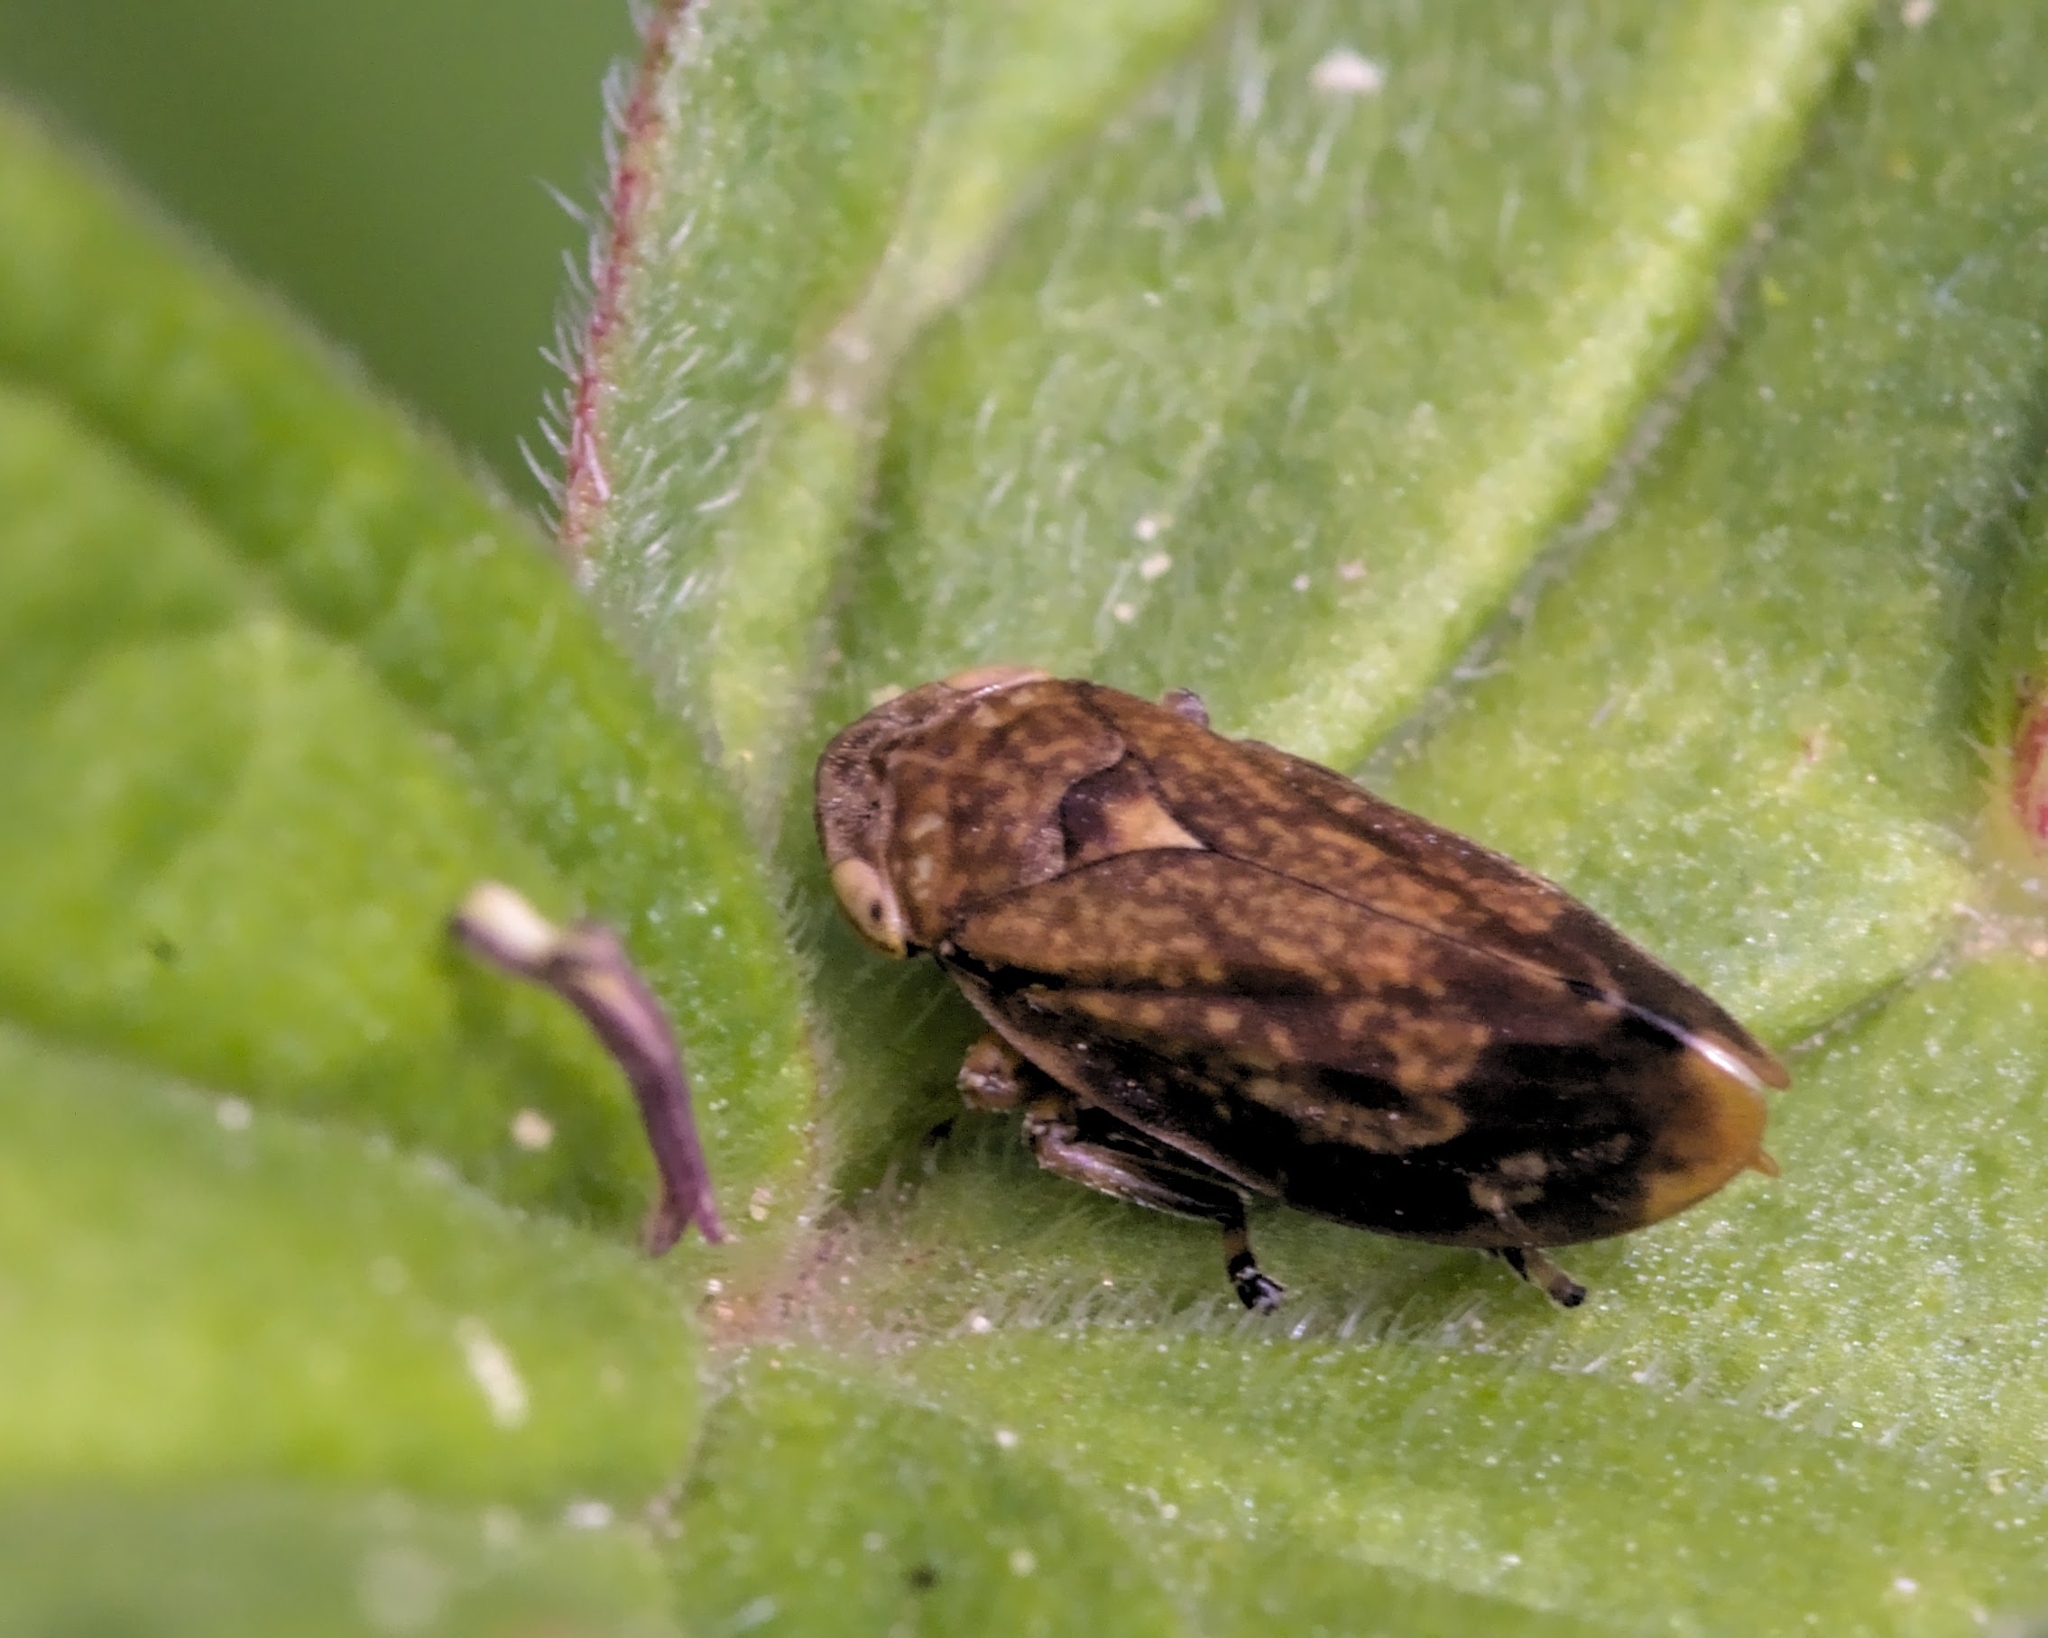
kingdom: Animalia
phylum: Arthropoda
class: Insecta
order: Hemiptera
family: Aphrophoridae
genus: Philaenus
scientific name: Philaenus spumarius
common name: Meadow spittlebug
